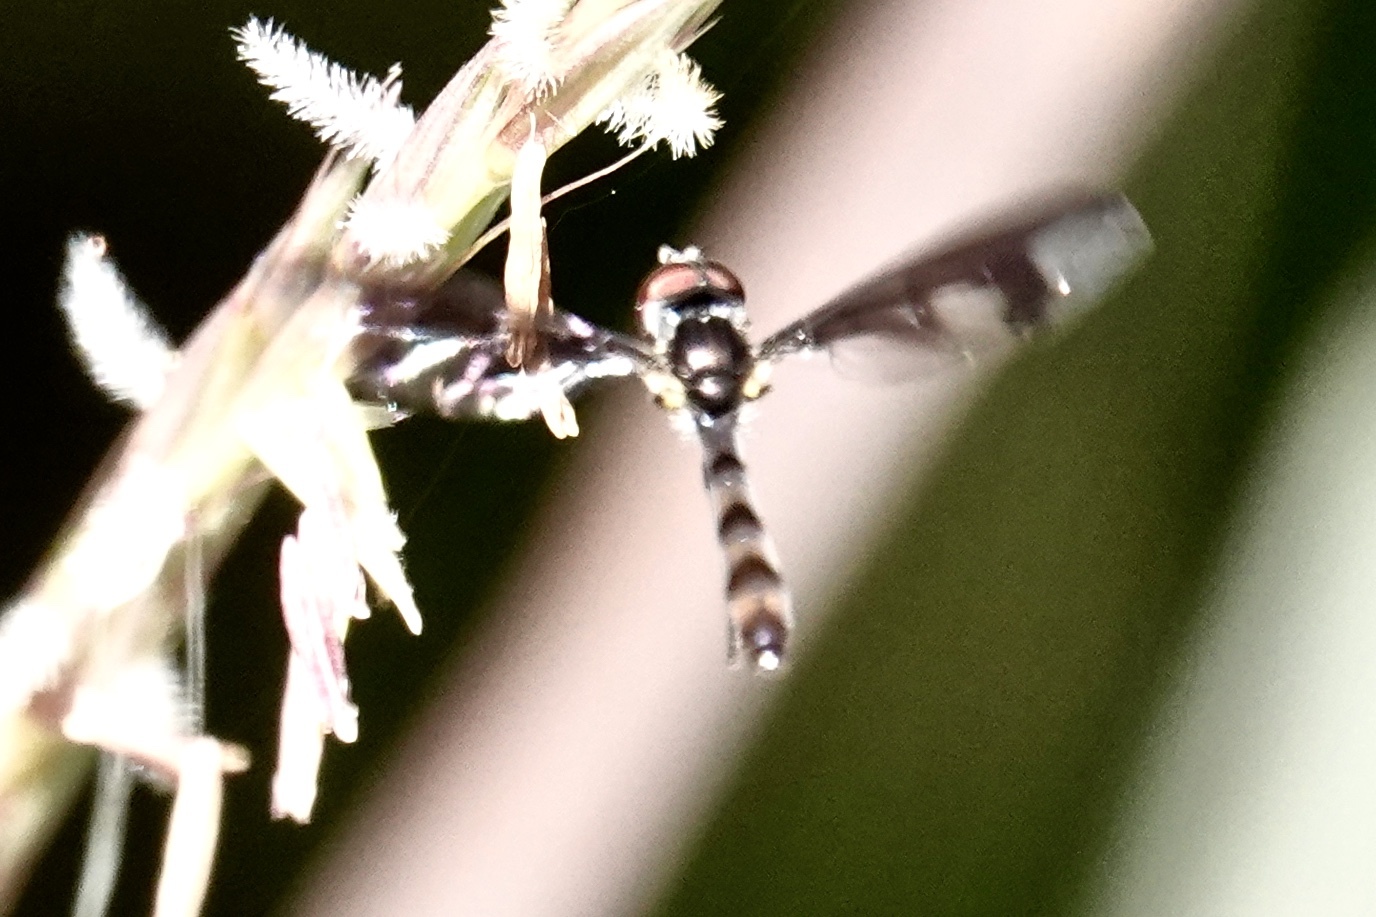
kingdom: Animalia
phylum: Arthropoda
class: Insecta
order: Diptera
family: Syrphidae
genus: Ocyptamus
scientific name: Ocyptamus fuscipennis
